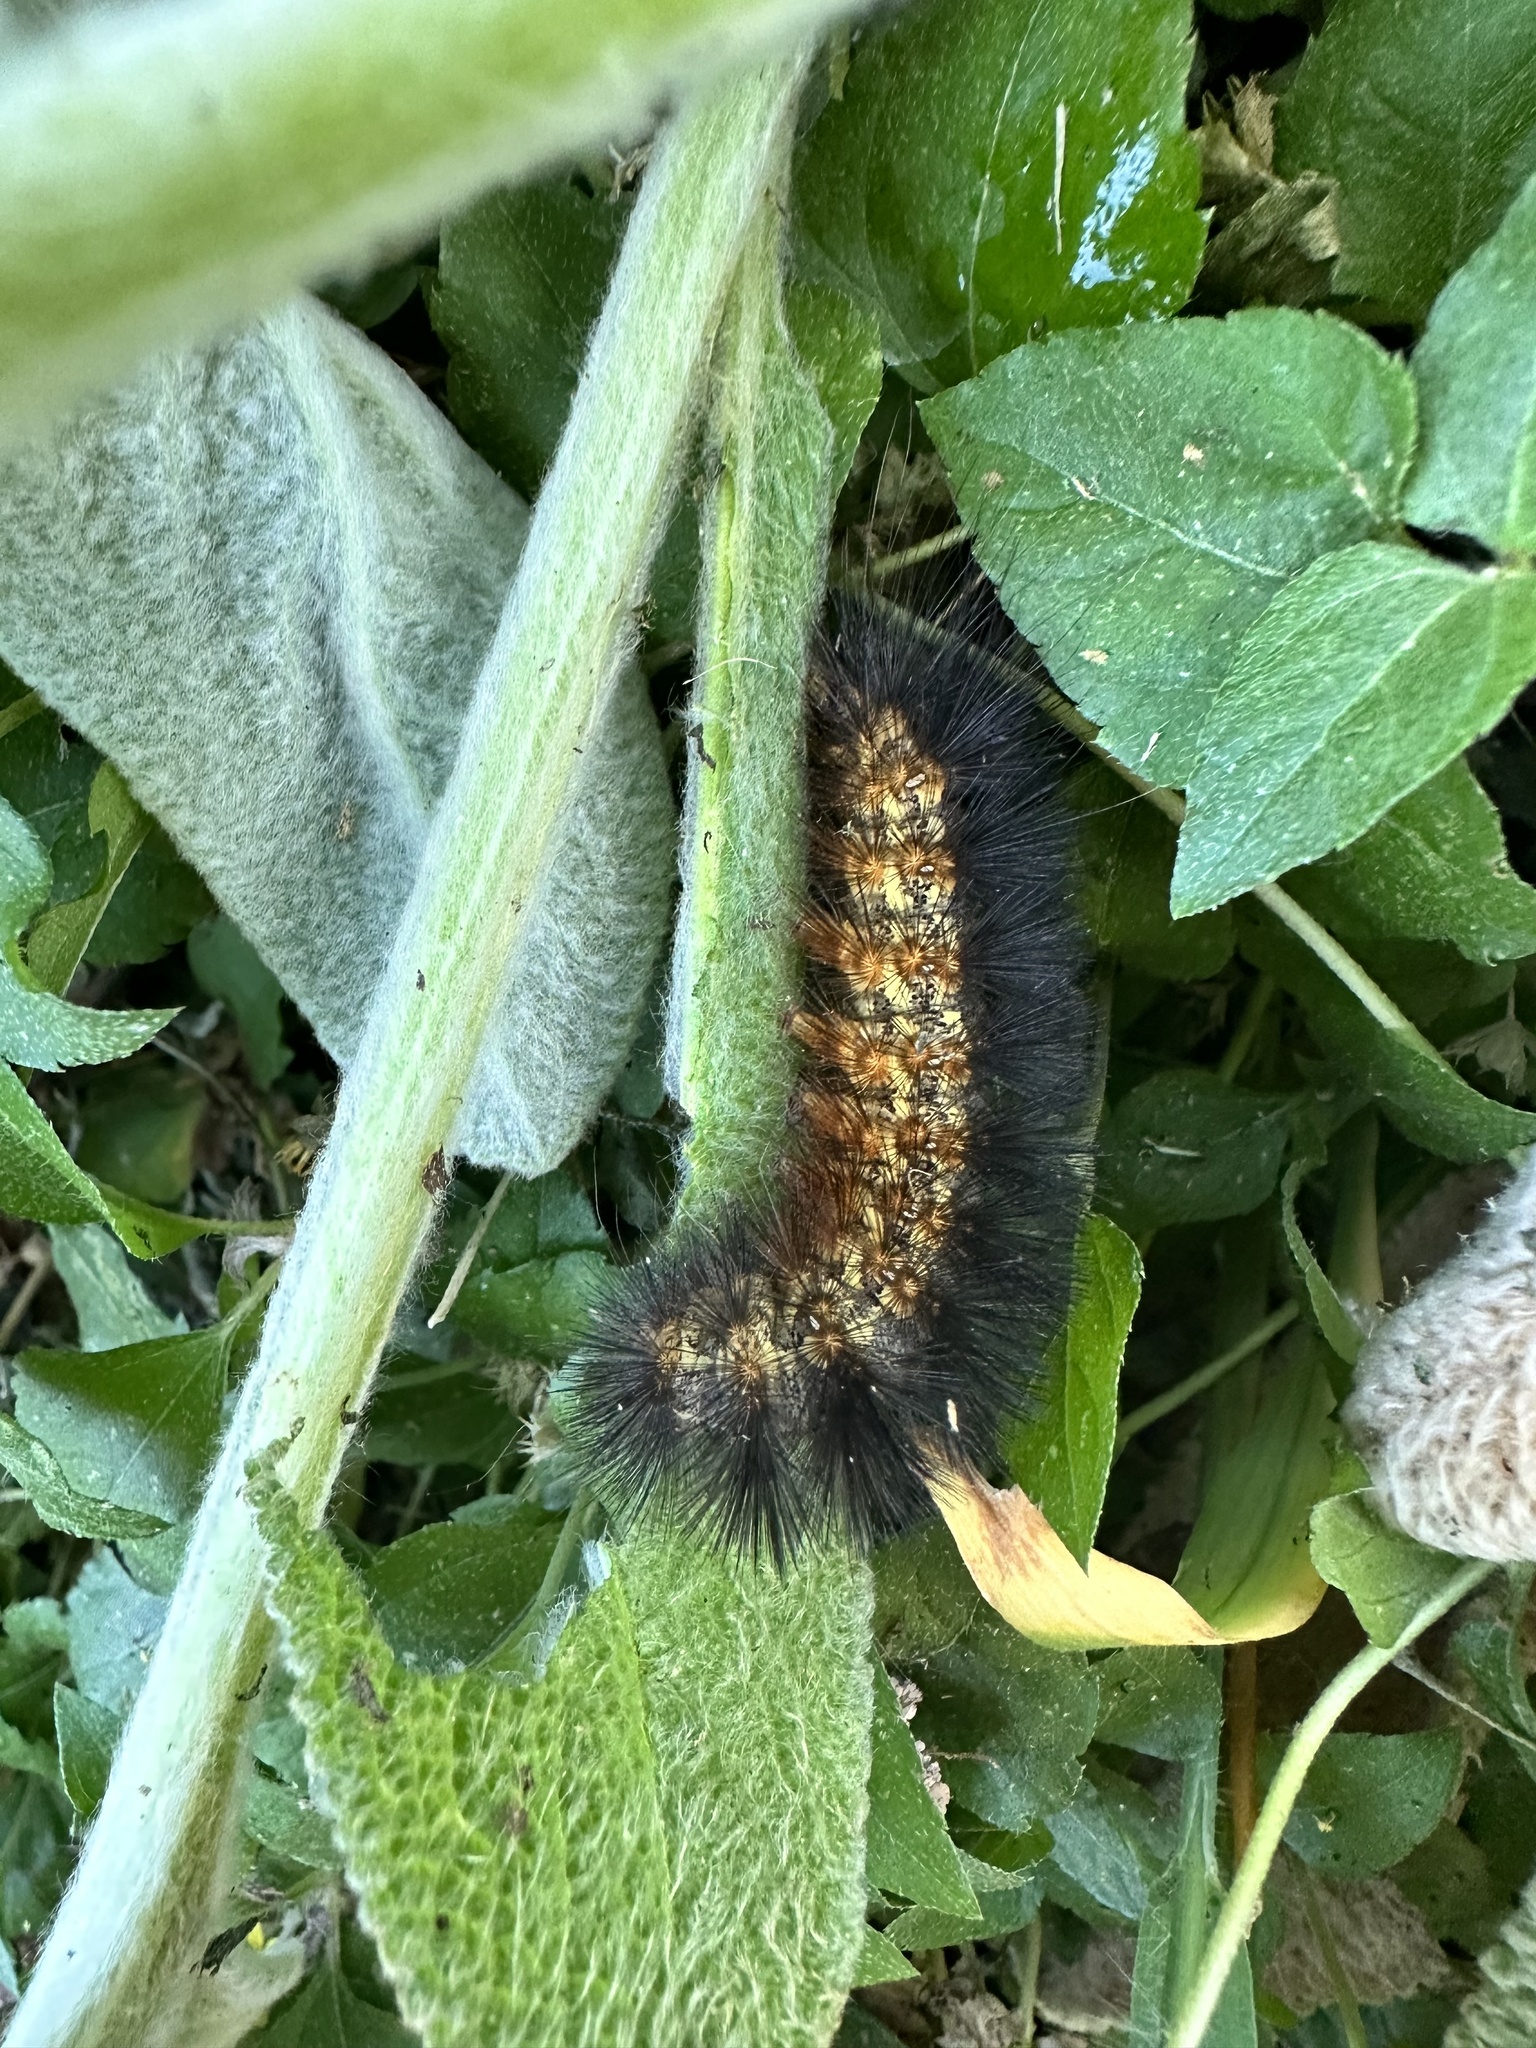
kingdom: Animalia
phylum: Arthropoda
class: Insecta
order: Lepidoptera
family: Erebidae
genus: Estigmene
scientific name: Estigmene acrea
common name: Salt marsh moth
